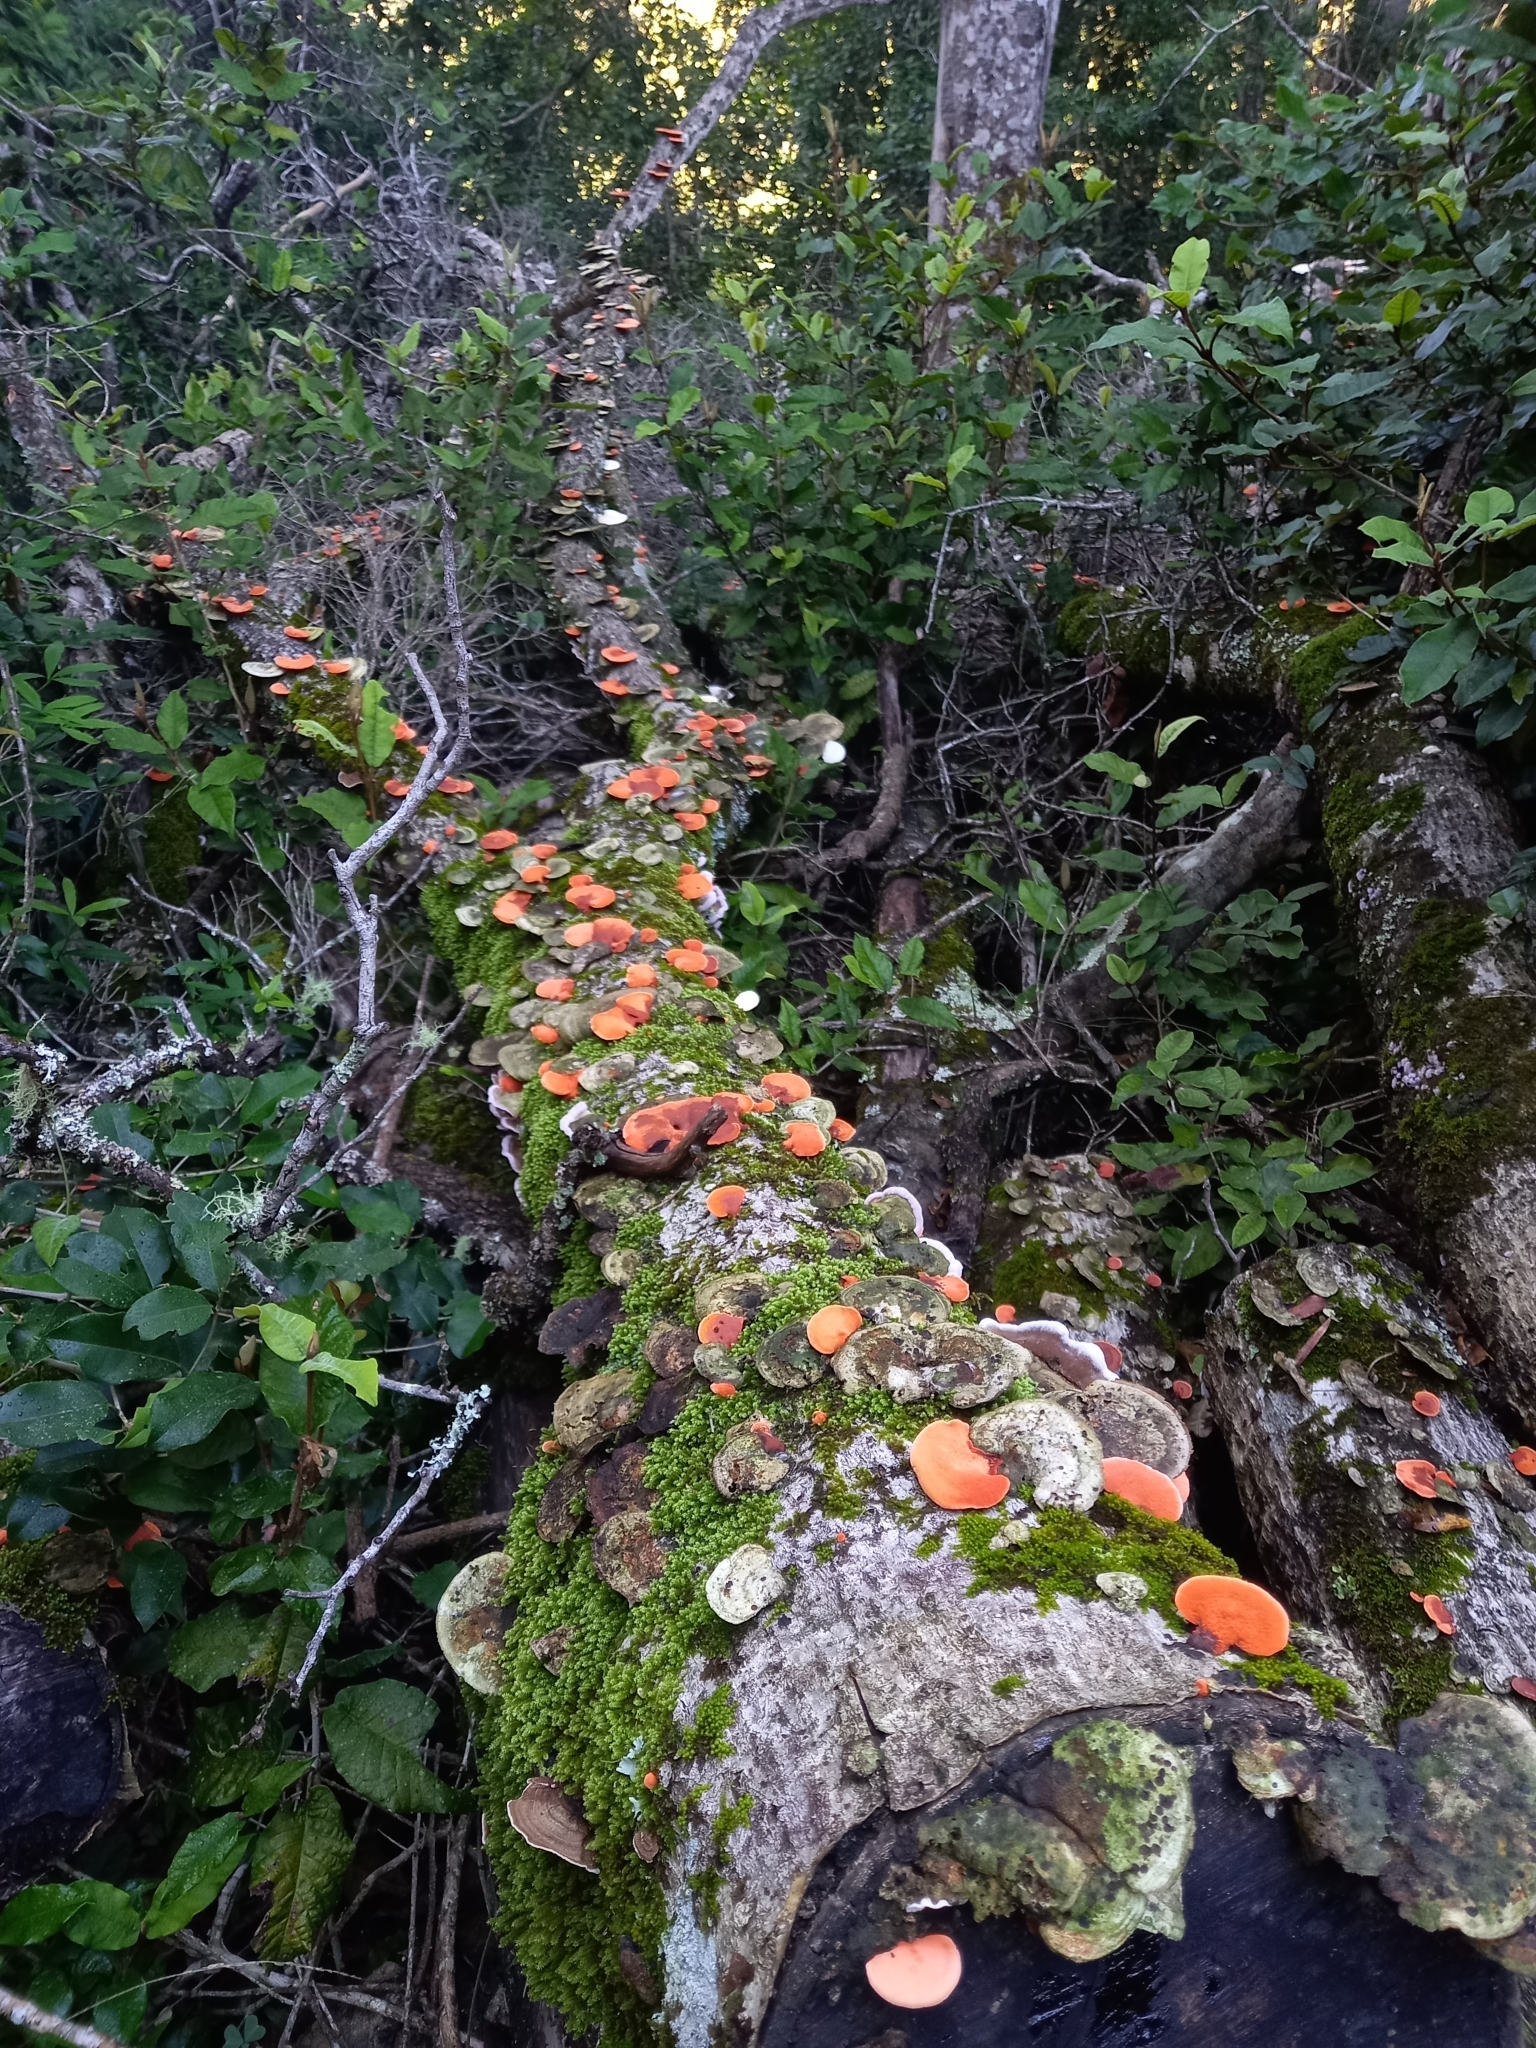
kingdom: Fungi
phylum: Basidiomycota
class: Agaricomycetes
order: Polyporales
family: Polyporaceae
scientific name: Polyporaceae
